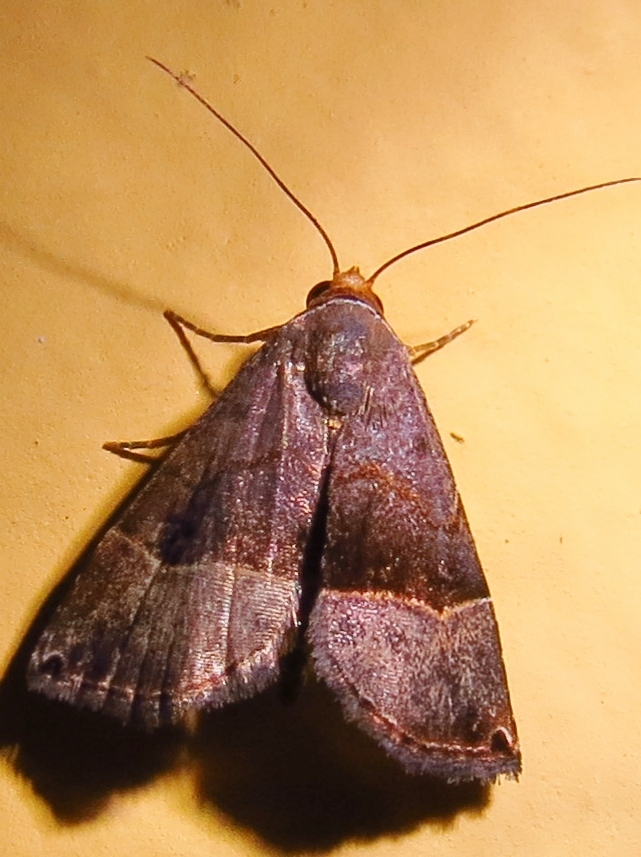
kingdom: Animalia
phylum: Arthropoda
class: Insecta
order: Lepidoptera
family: Noctuidae
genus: Abacena
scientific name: Abacena mundula
